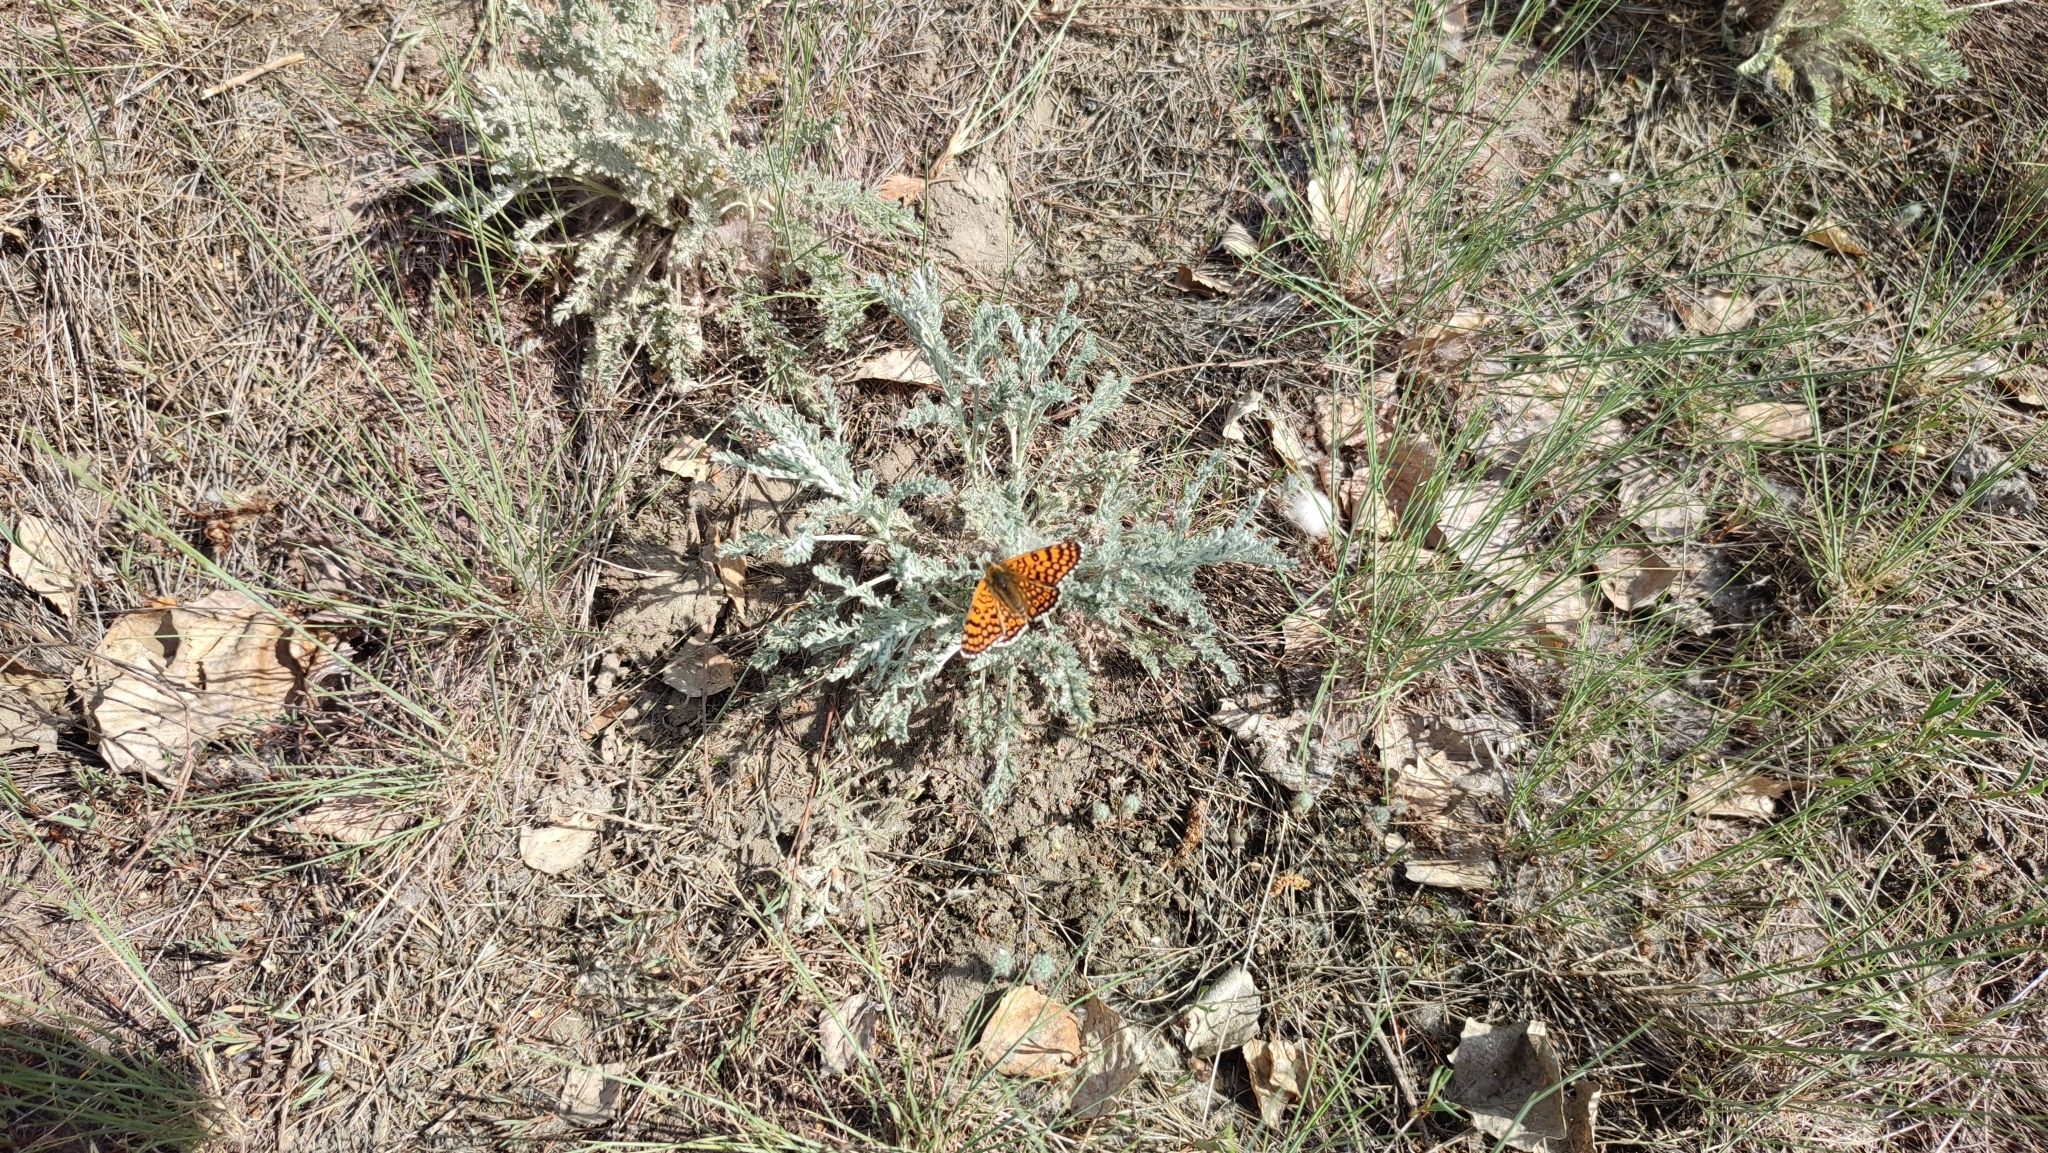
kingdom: Animalia
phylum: Arthropoda
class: Insecta
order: Lepidoptera
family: Nymphalidae
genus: Melitaea
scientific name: Melitaea cinxia
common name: Glanville fritillary
